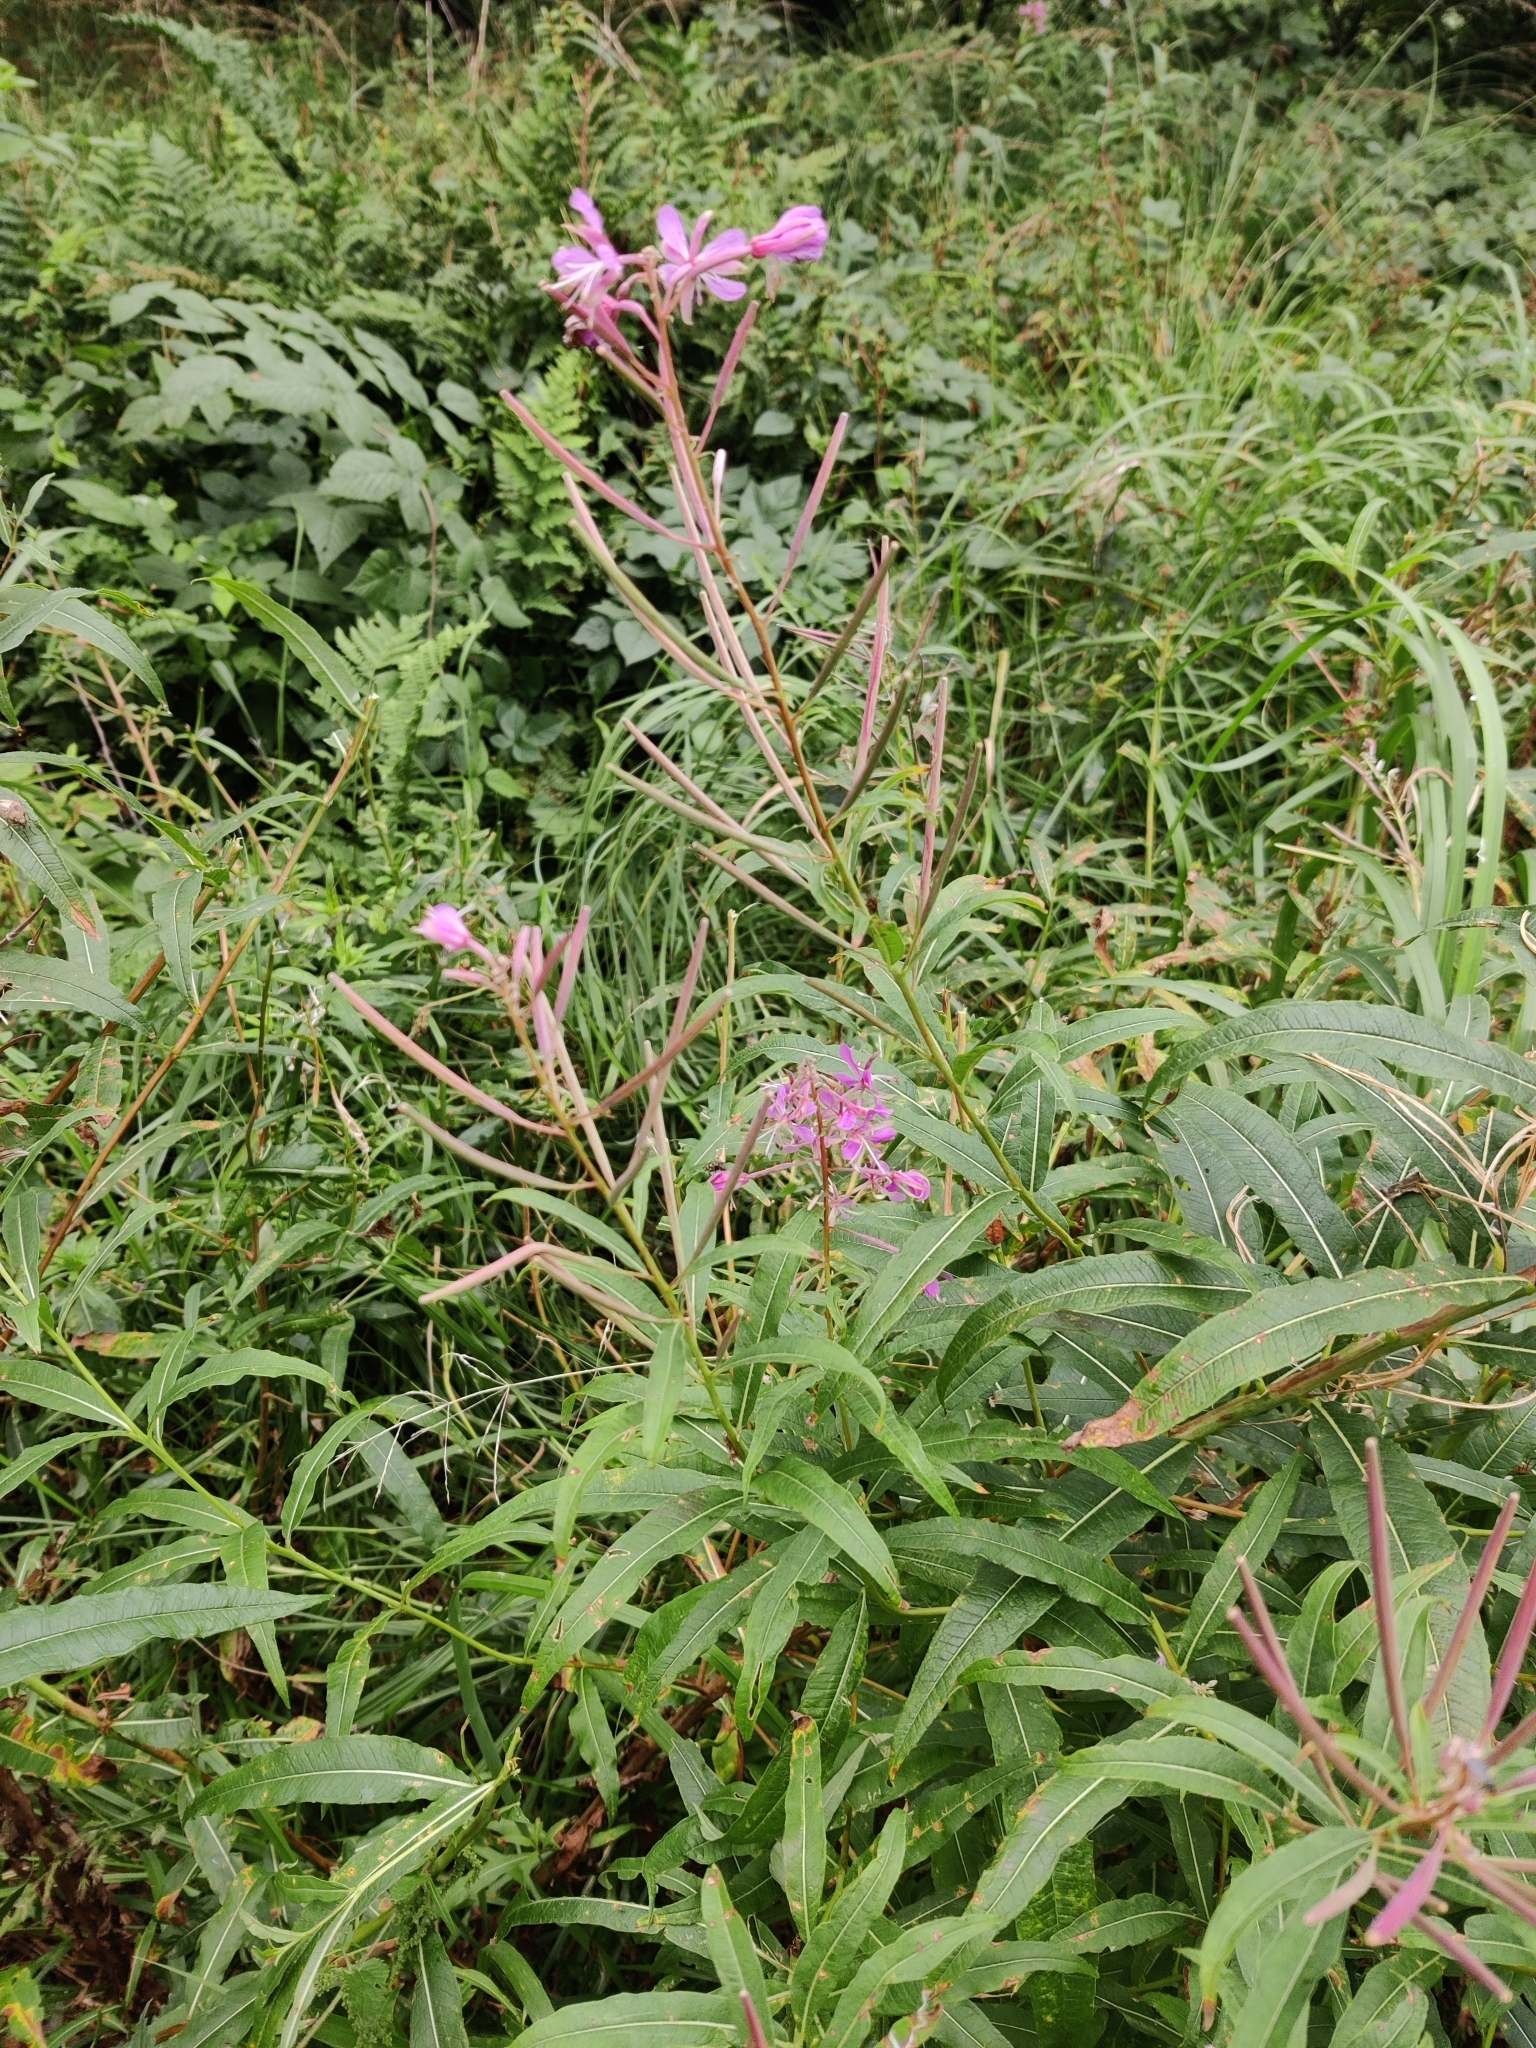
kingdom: Plantae
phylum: Tracheophyta
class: Magnoliopsida
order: Myrtales
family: Onagraceae
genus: Chamaenerion
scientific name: Chamaenerion angustifolium
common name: Fireweed
